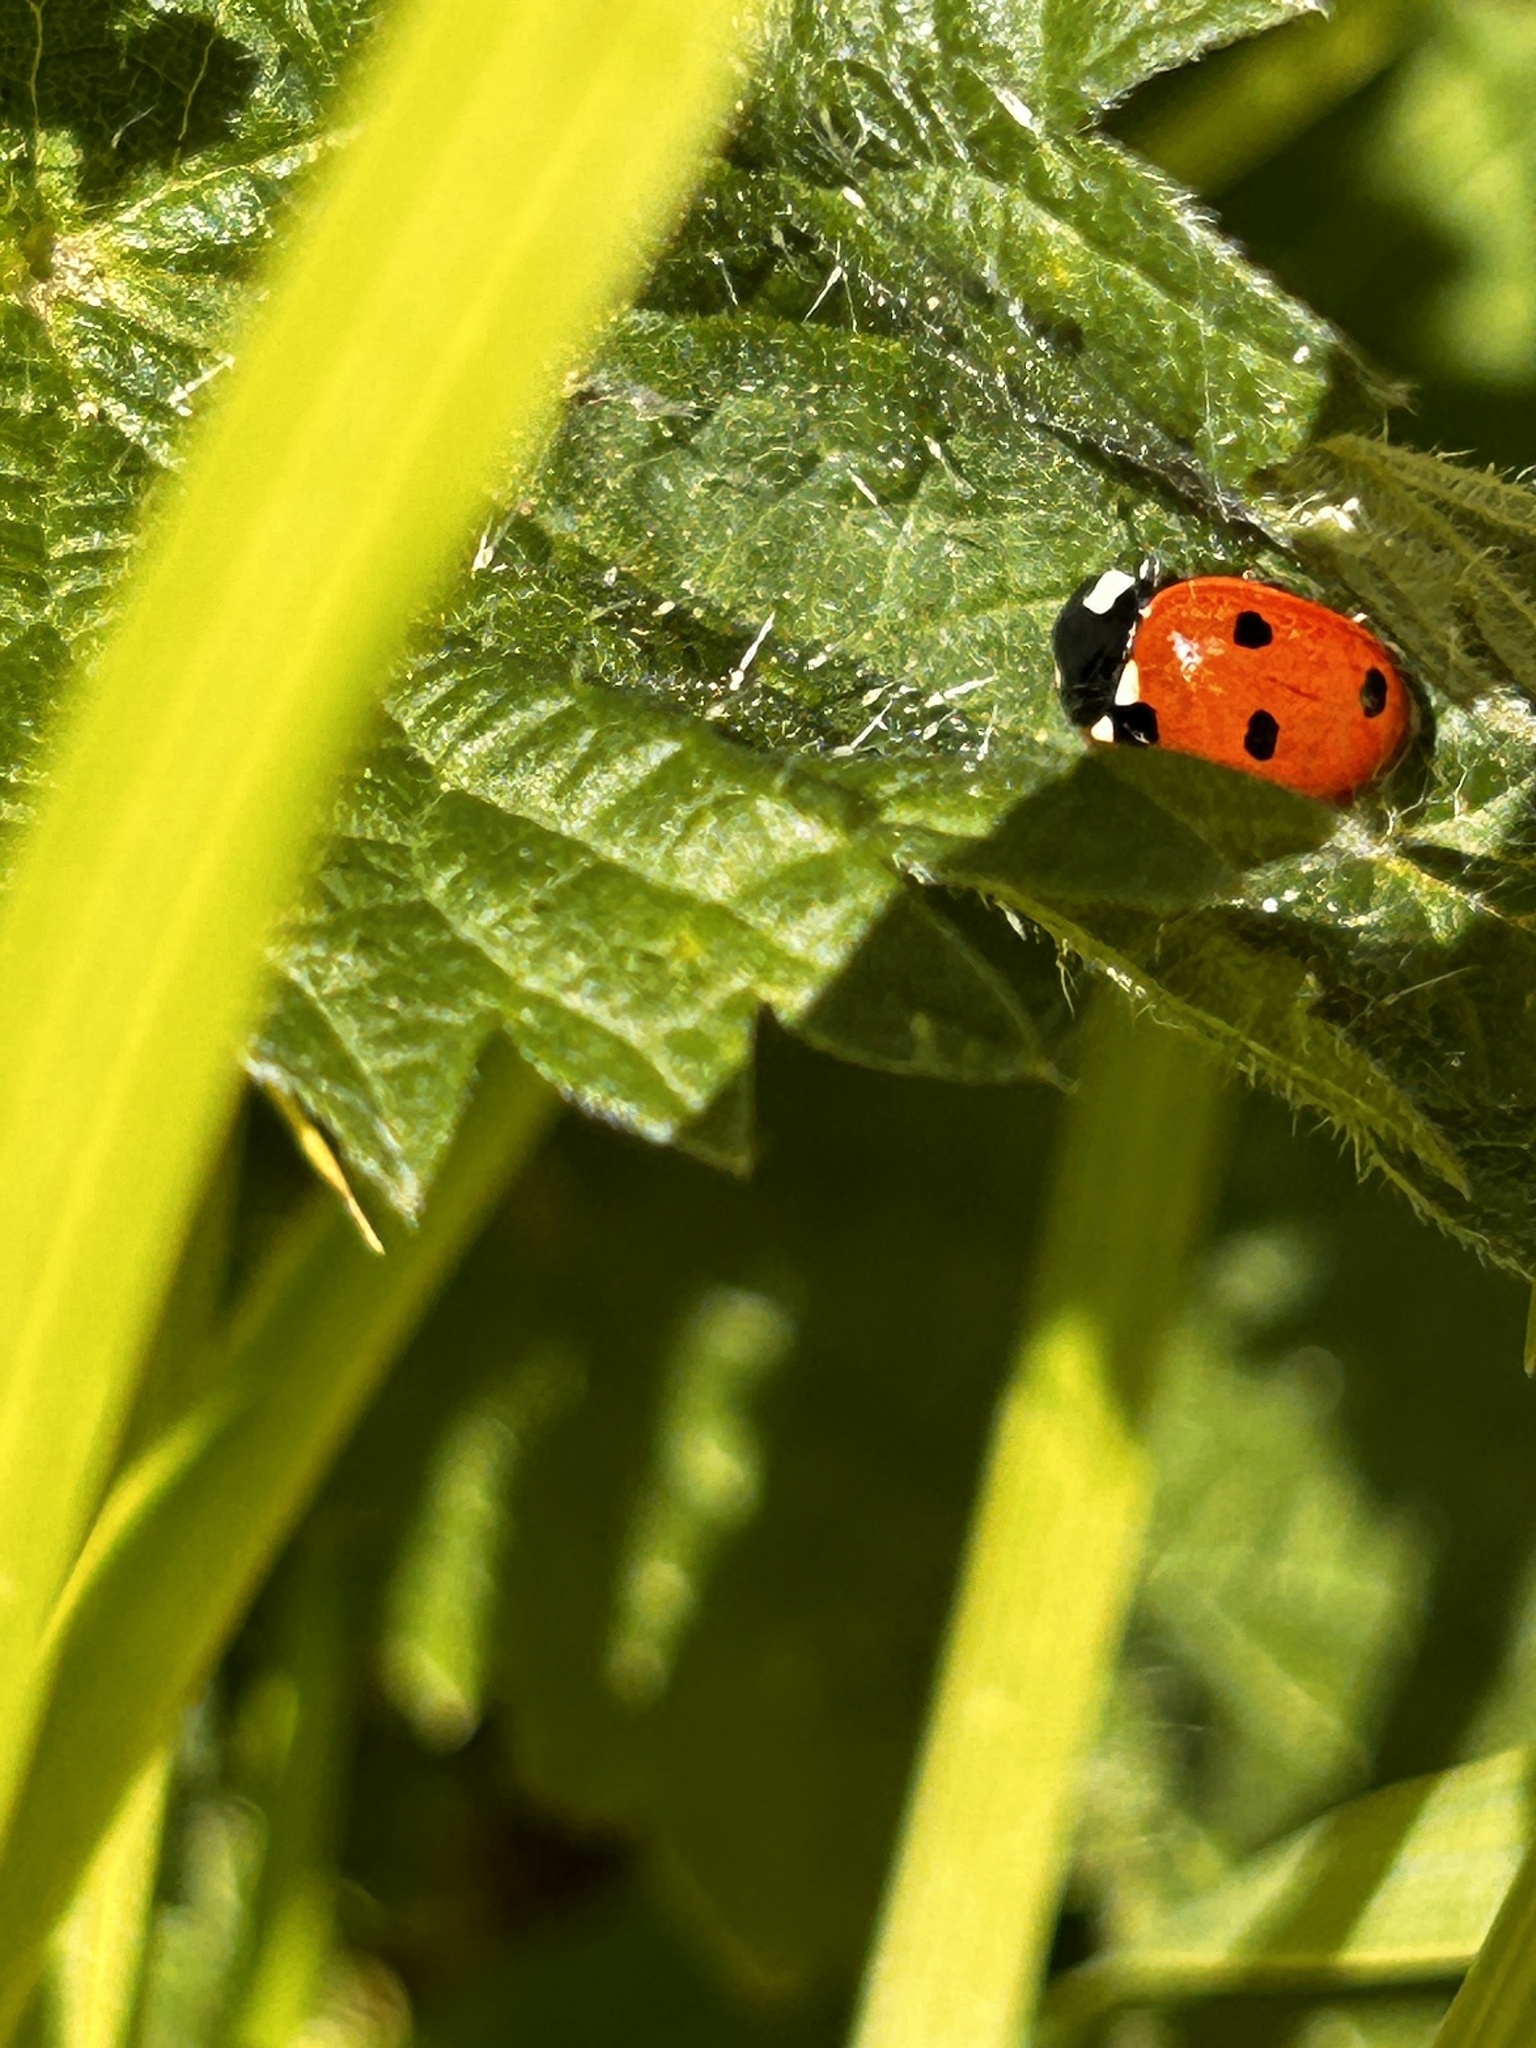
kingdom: Animalia
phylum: Arthropoda
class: Insecta
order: Coleoptera
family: Coccinellidae
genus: Coccinella
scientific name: Coccinella septempunctata
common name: Sevenspotted lady beetle
